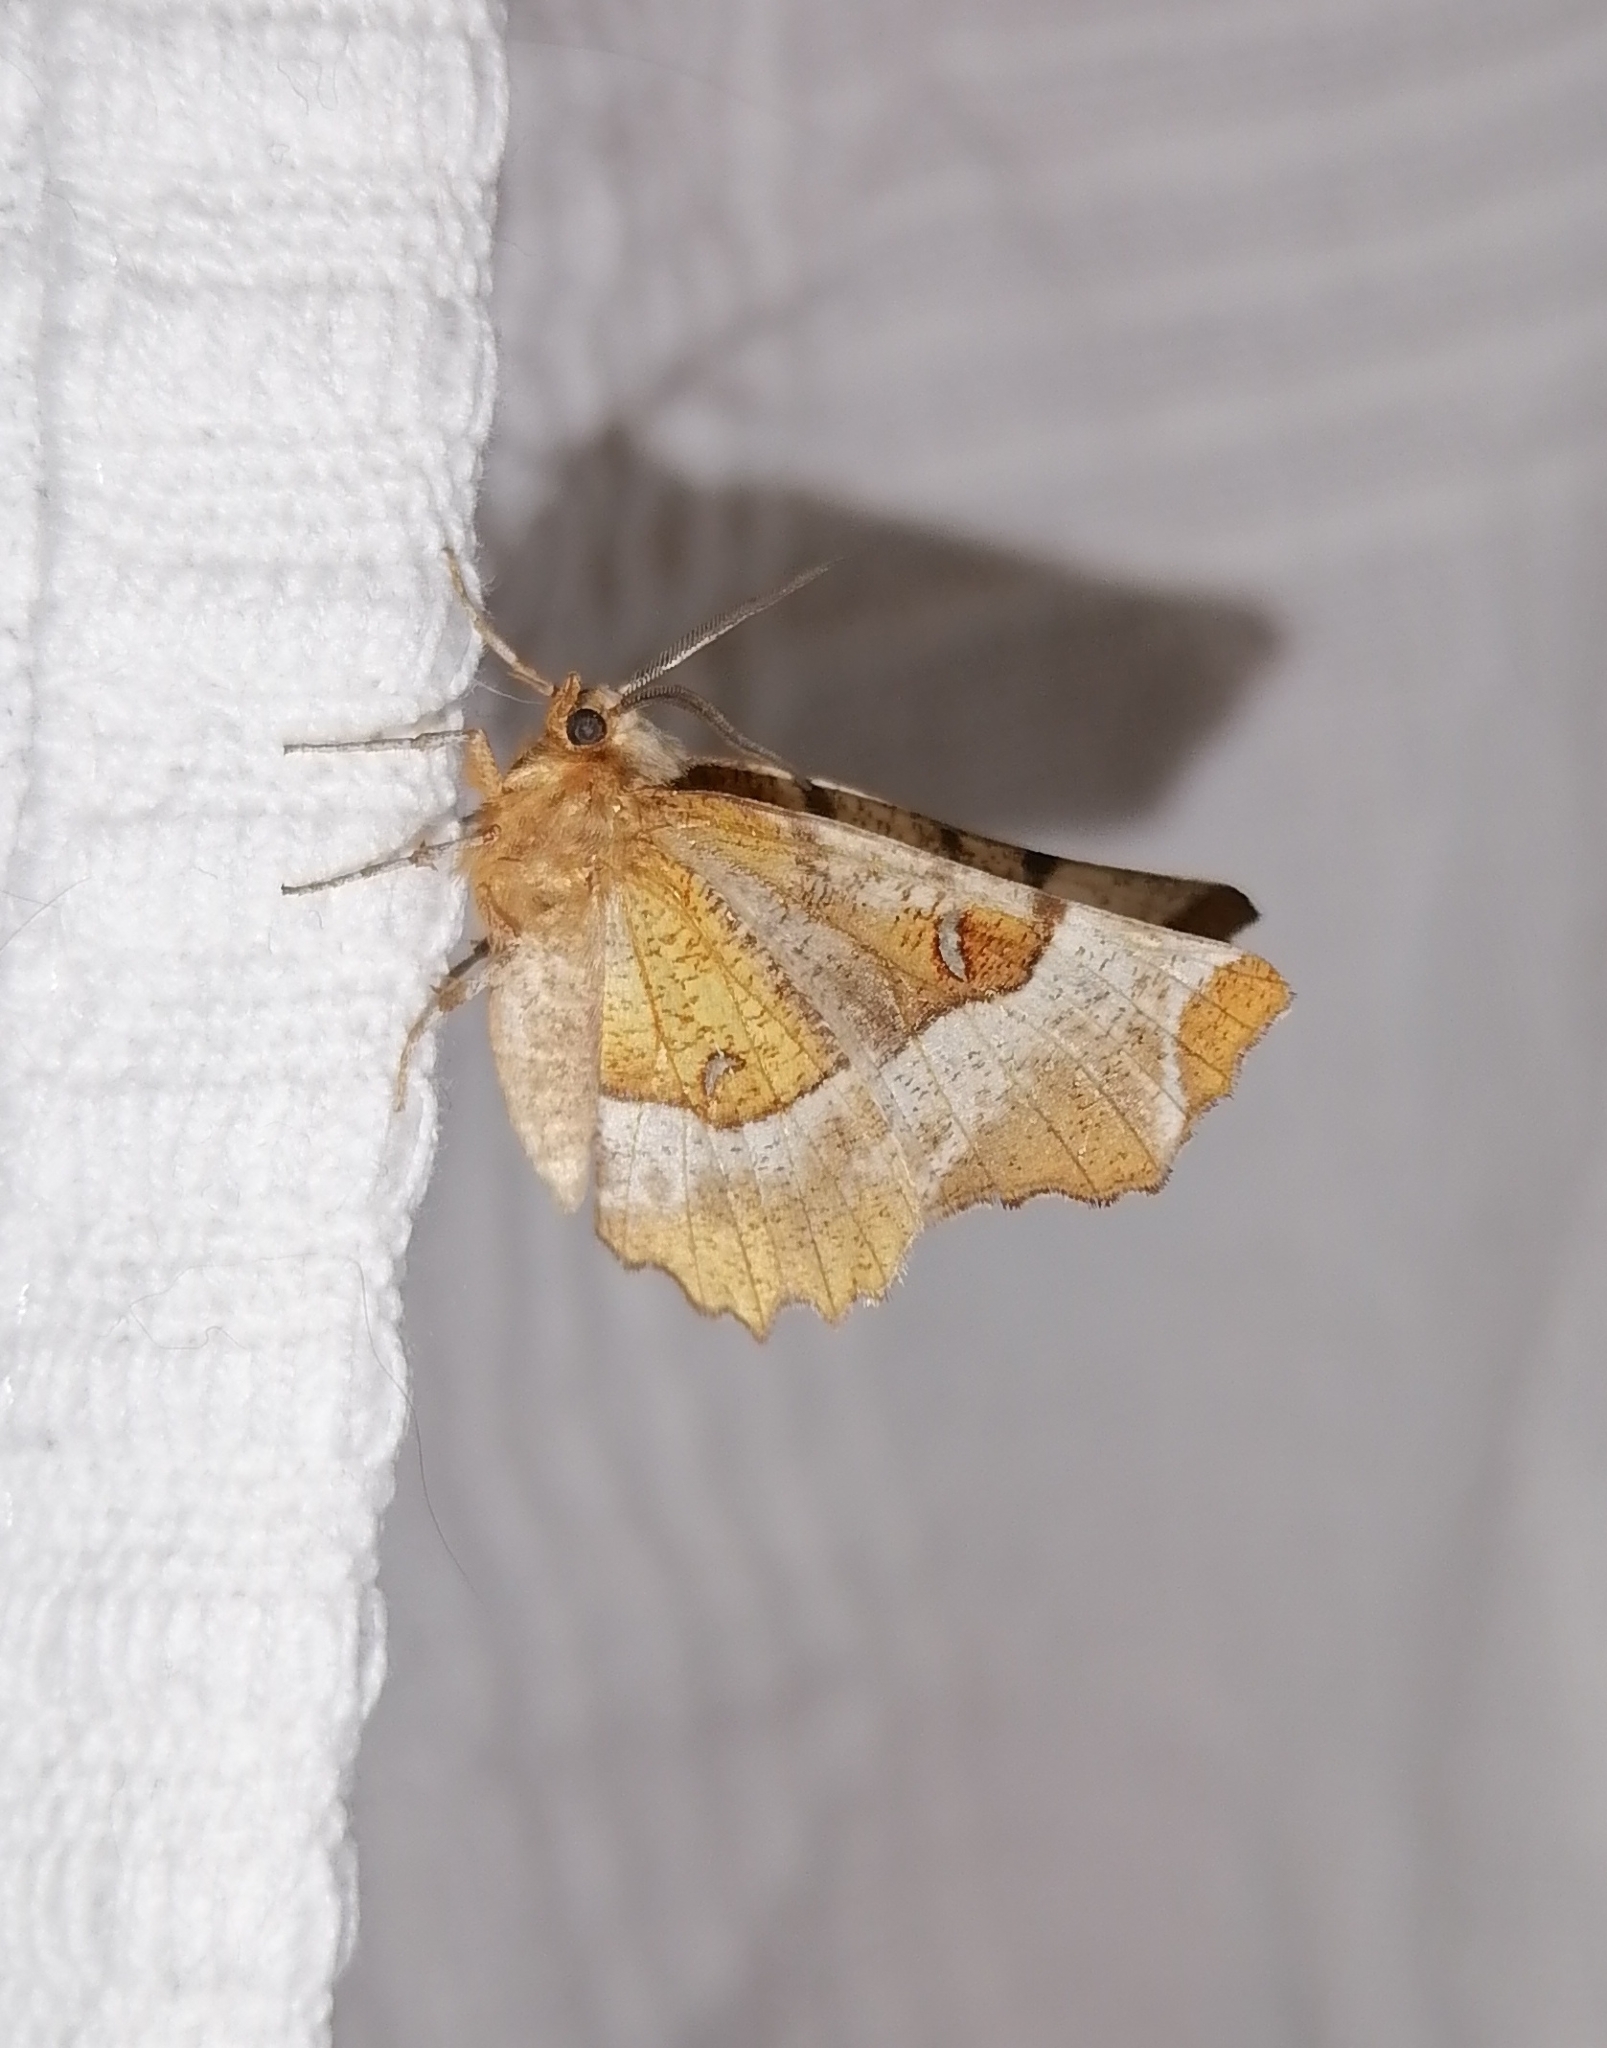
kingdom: Animalia
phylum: Arthropoda
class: Insecta
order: Lepidoptera
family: Geometridae
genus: Selenia
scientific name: Selenia tetralunaria
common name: Purple thorn
